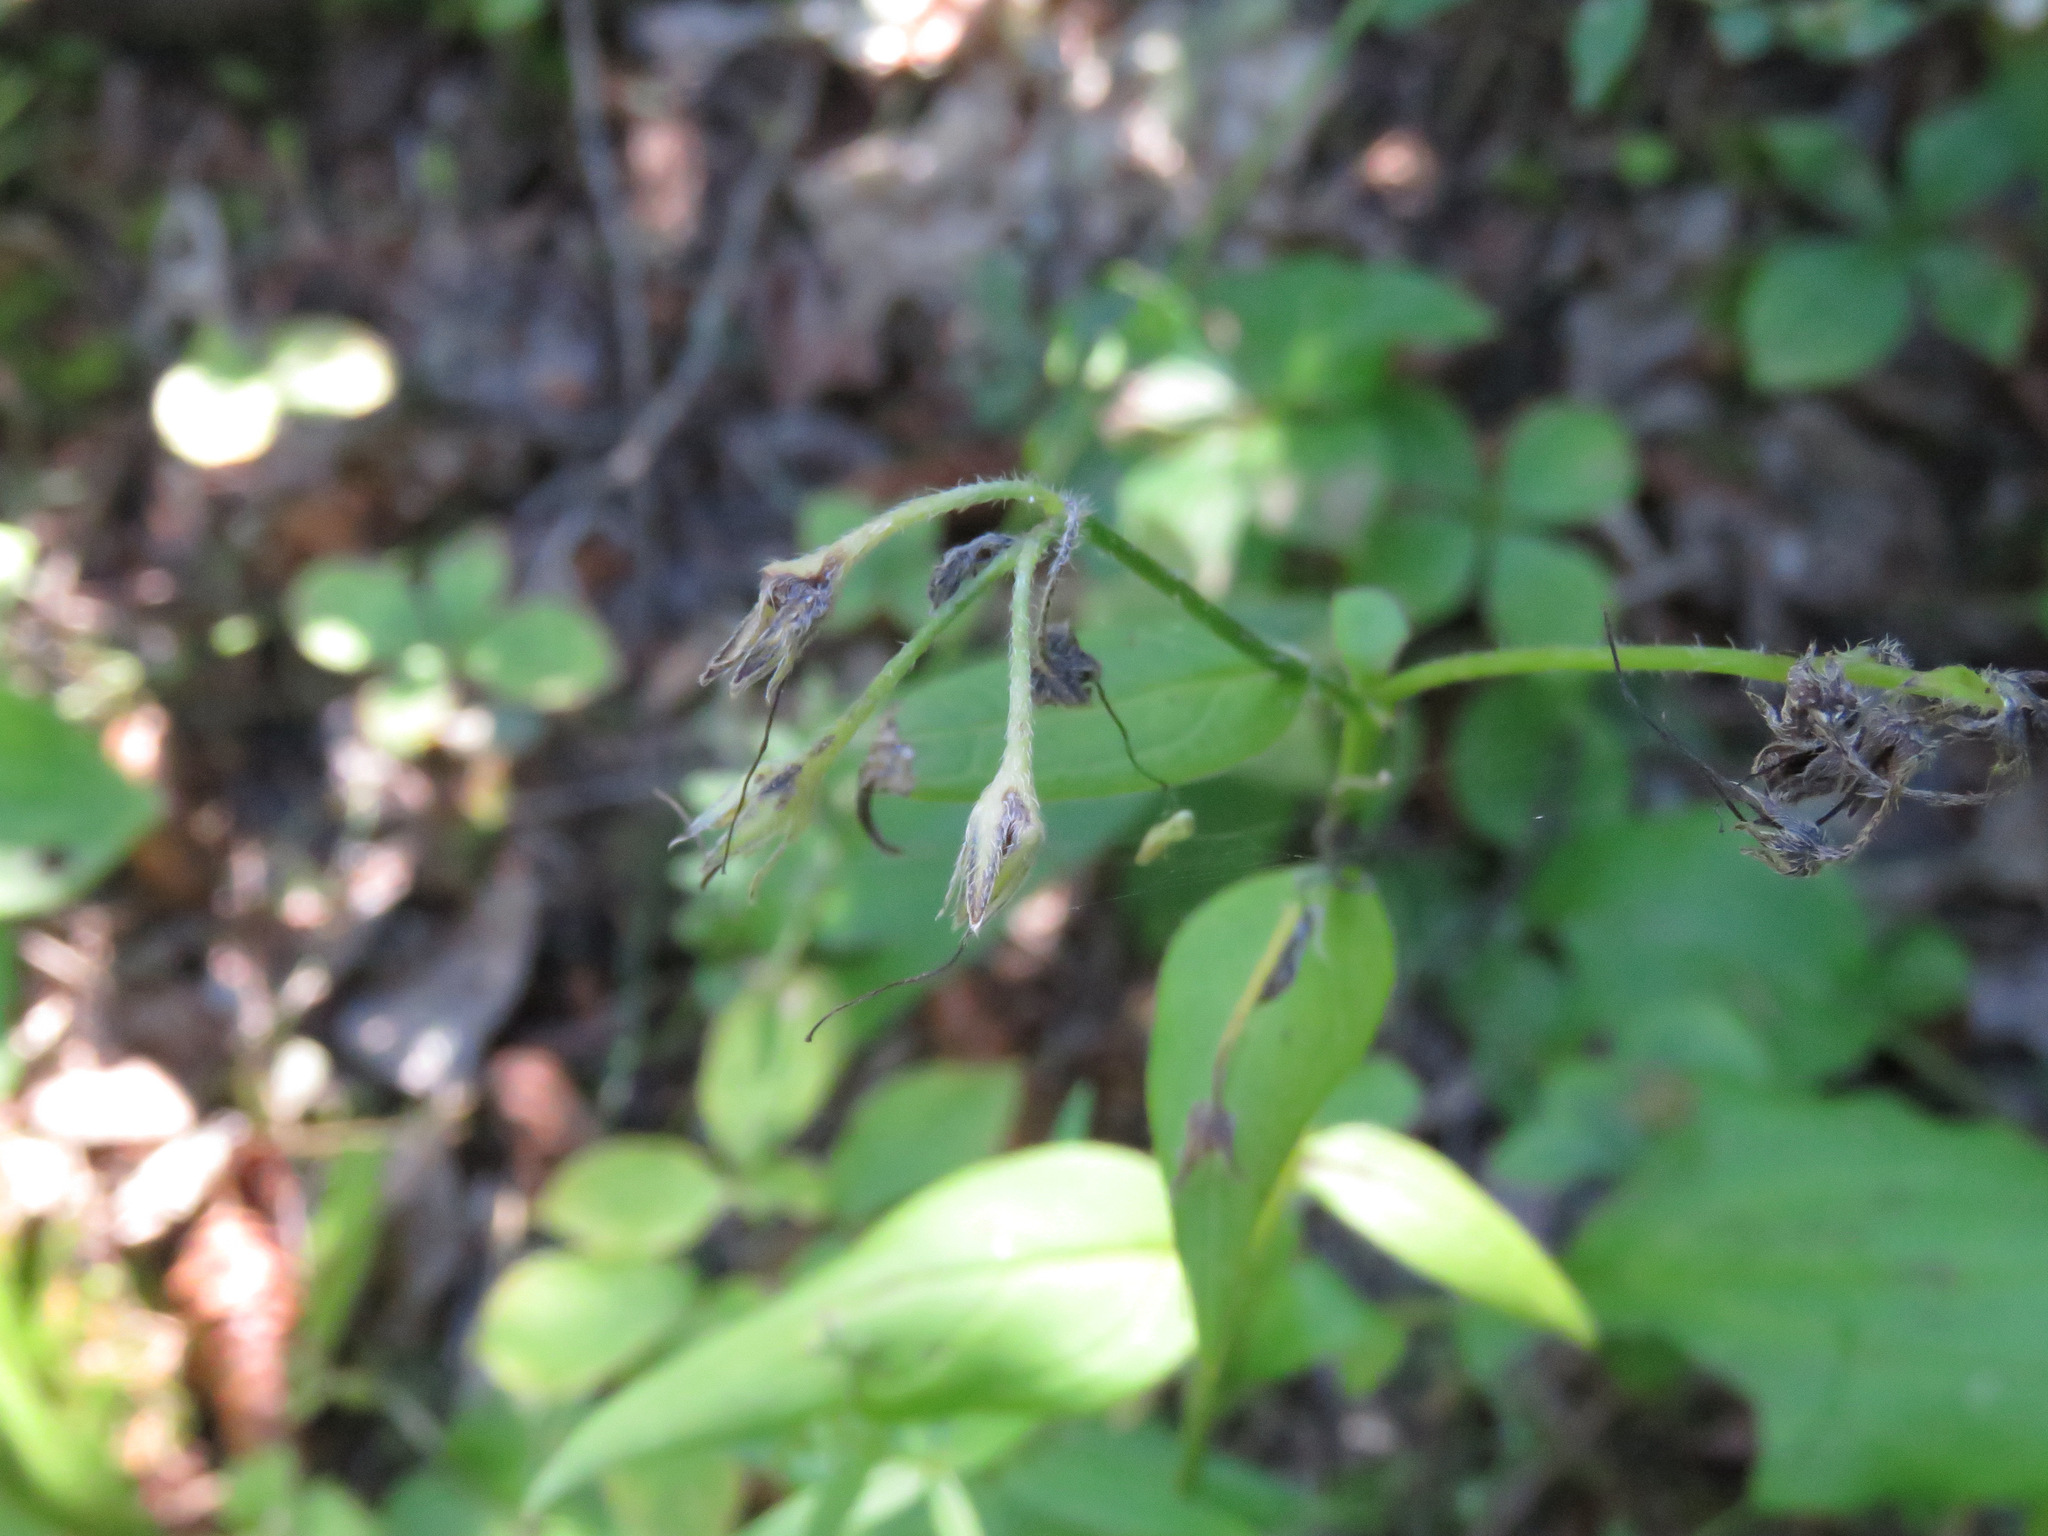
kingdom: Plantae
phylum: Tracheophyta
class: Magnoliopsida
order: Boraginales
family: Boraginaceae
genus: Mertensia
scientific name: Mertensia paniculata
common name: Panicled bluebells
